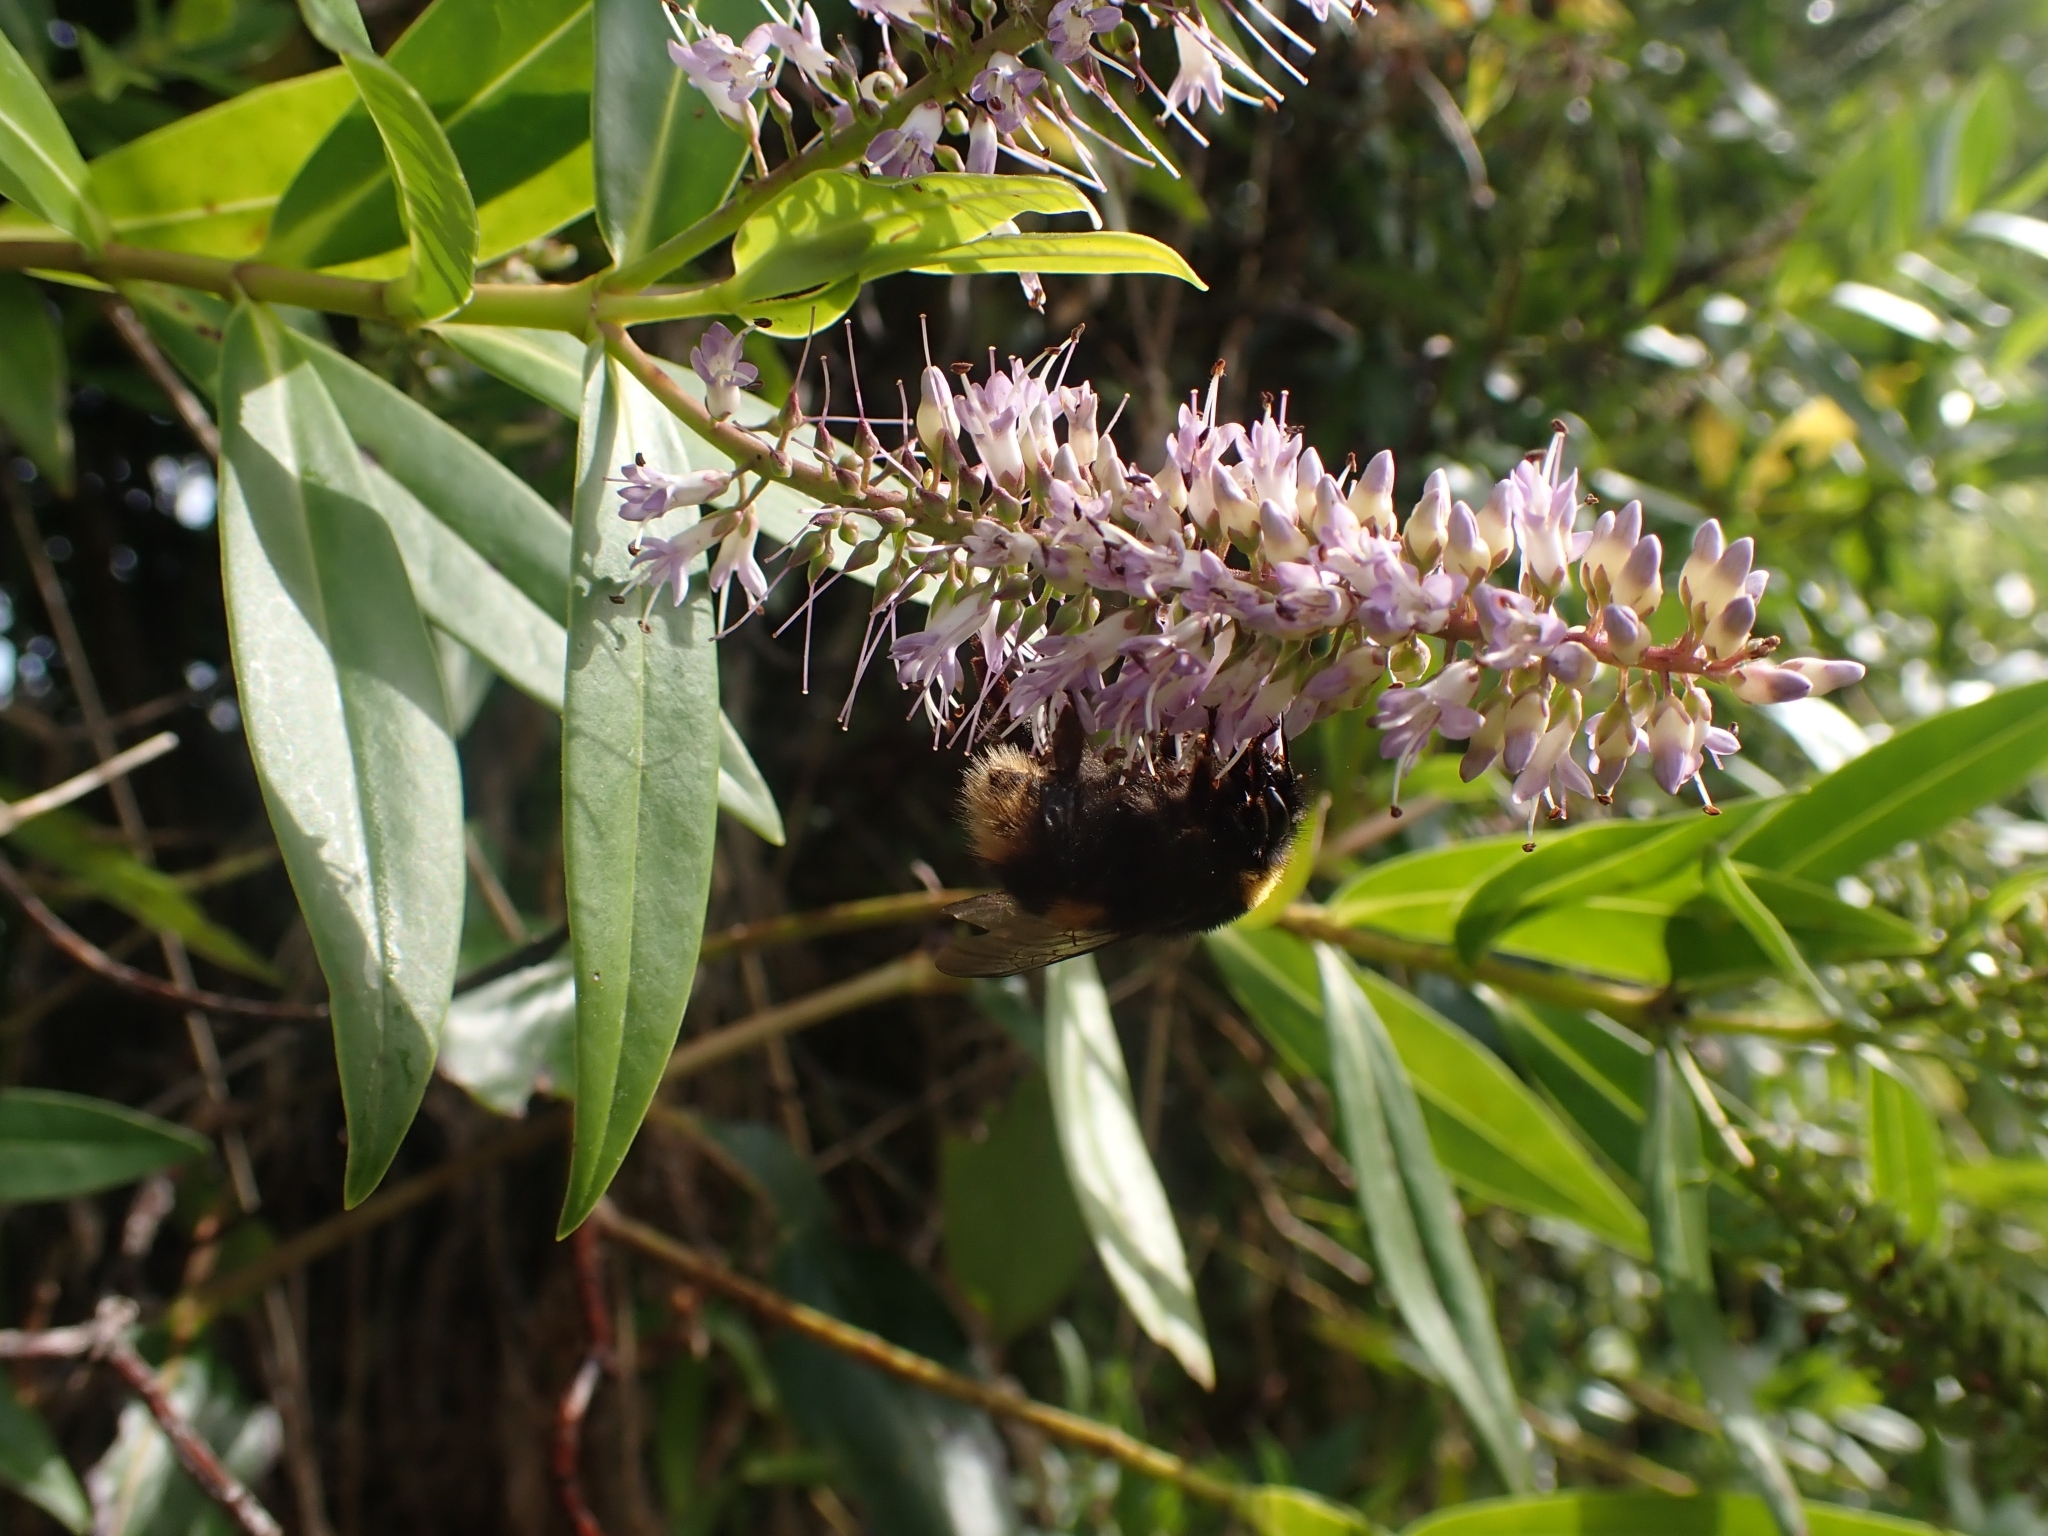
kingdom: Animalia
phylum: Arthropoda
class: Insecta
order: Hymenoptera
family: Apidae
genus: Bombus
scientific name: Bombus terrestris
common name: Buff-tailed bumblebee
